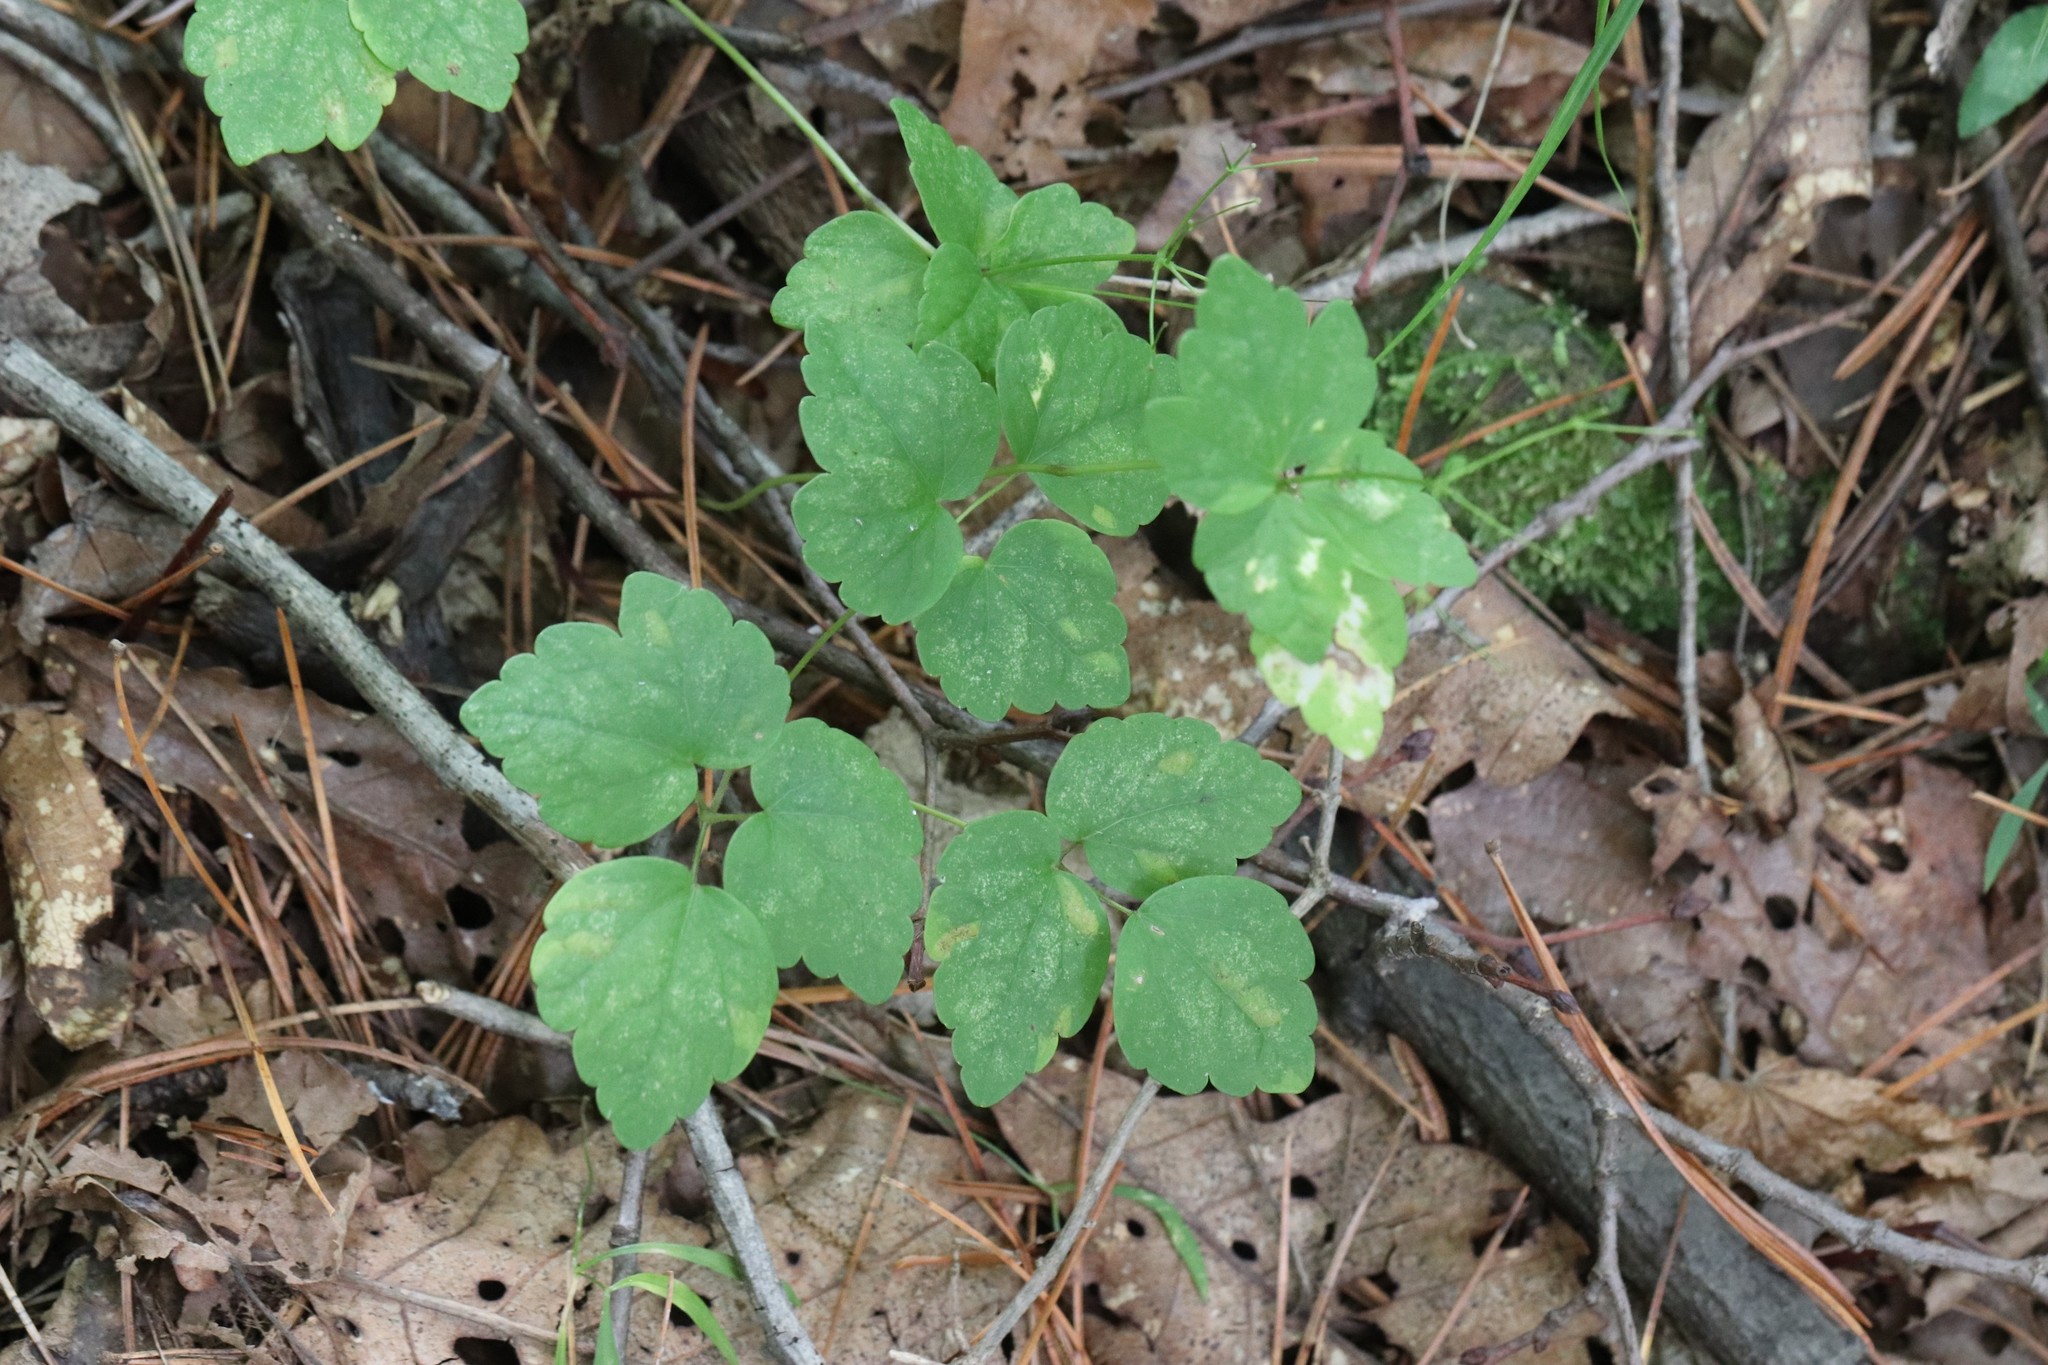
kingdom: Plantae
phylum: Tracheophyta
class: Magnoliopsida
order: Ranunculales
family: Ranunculaceae
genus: Thalictrum
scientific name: Thalictrum filamentosum
